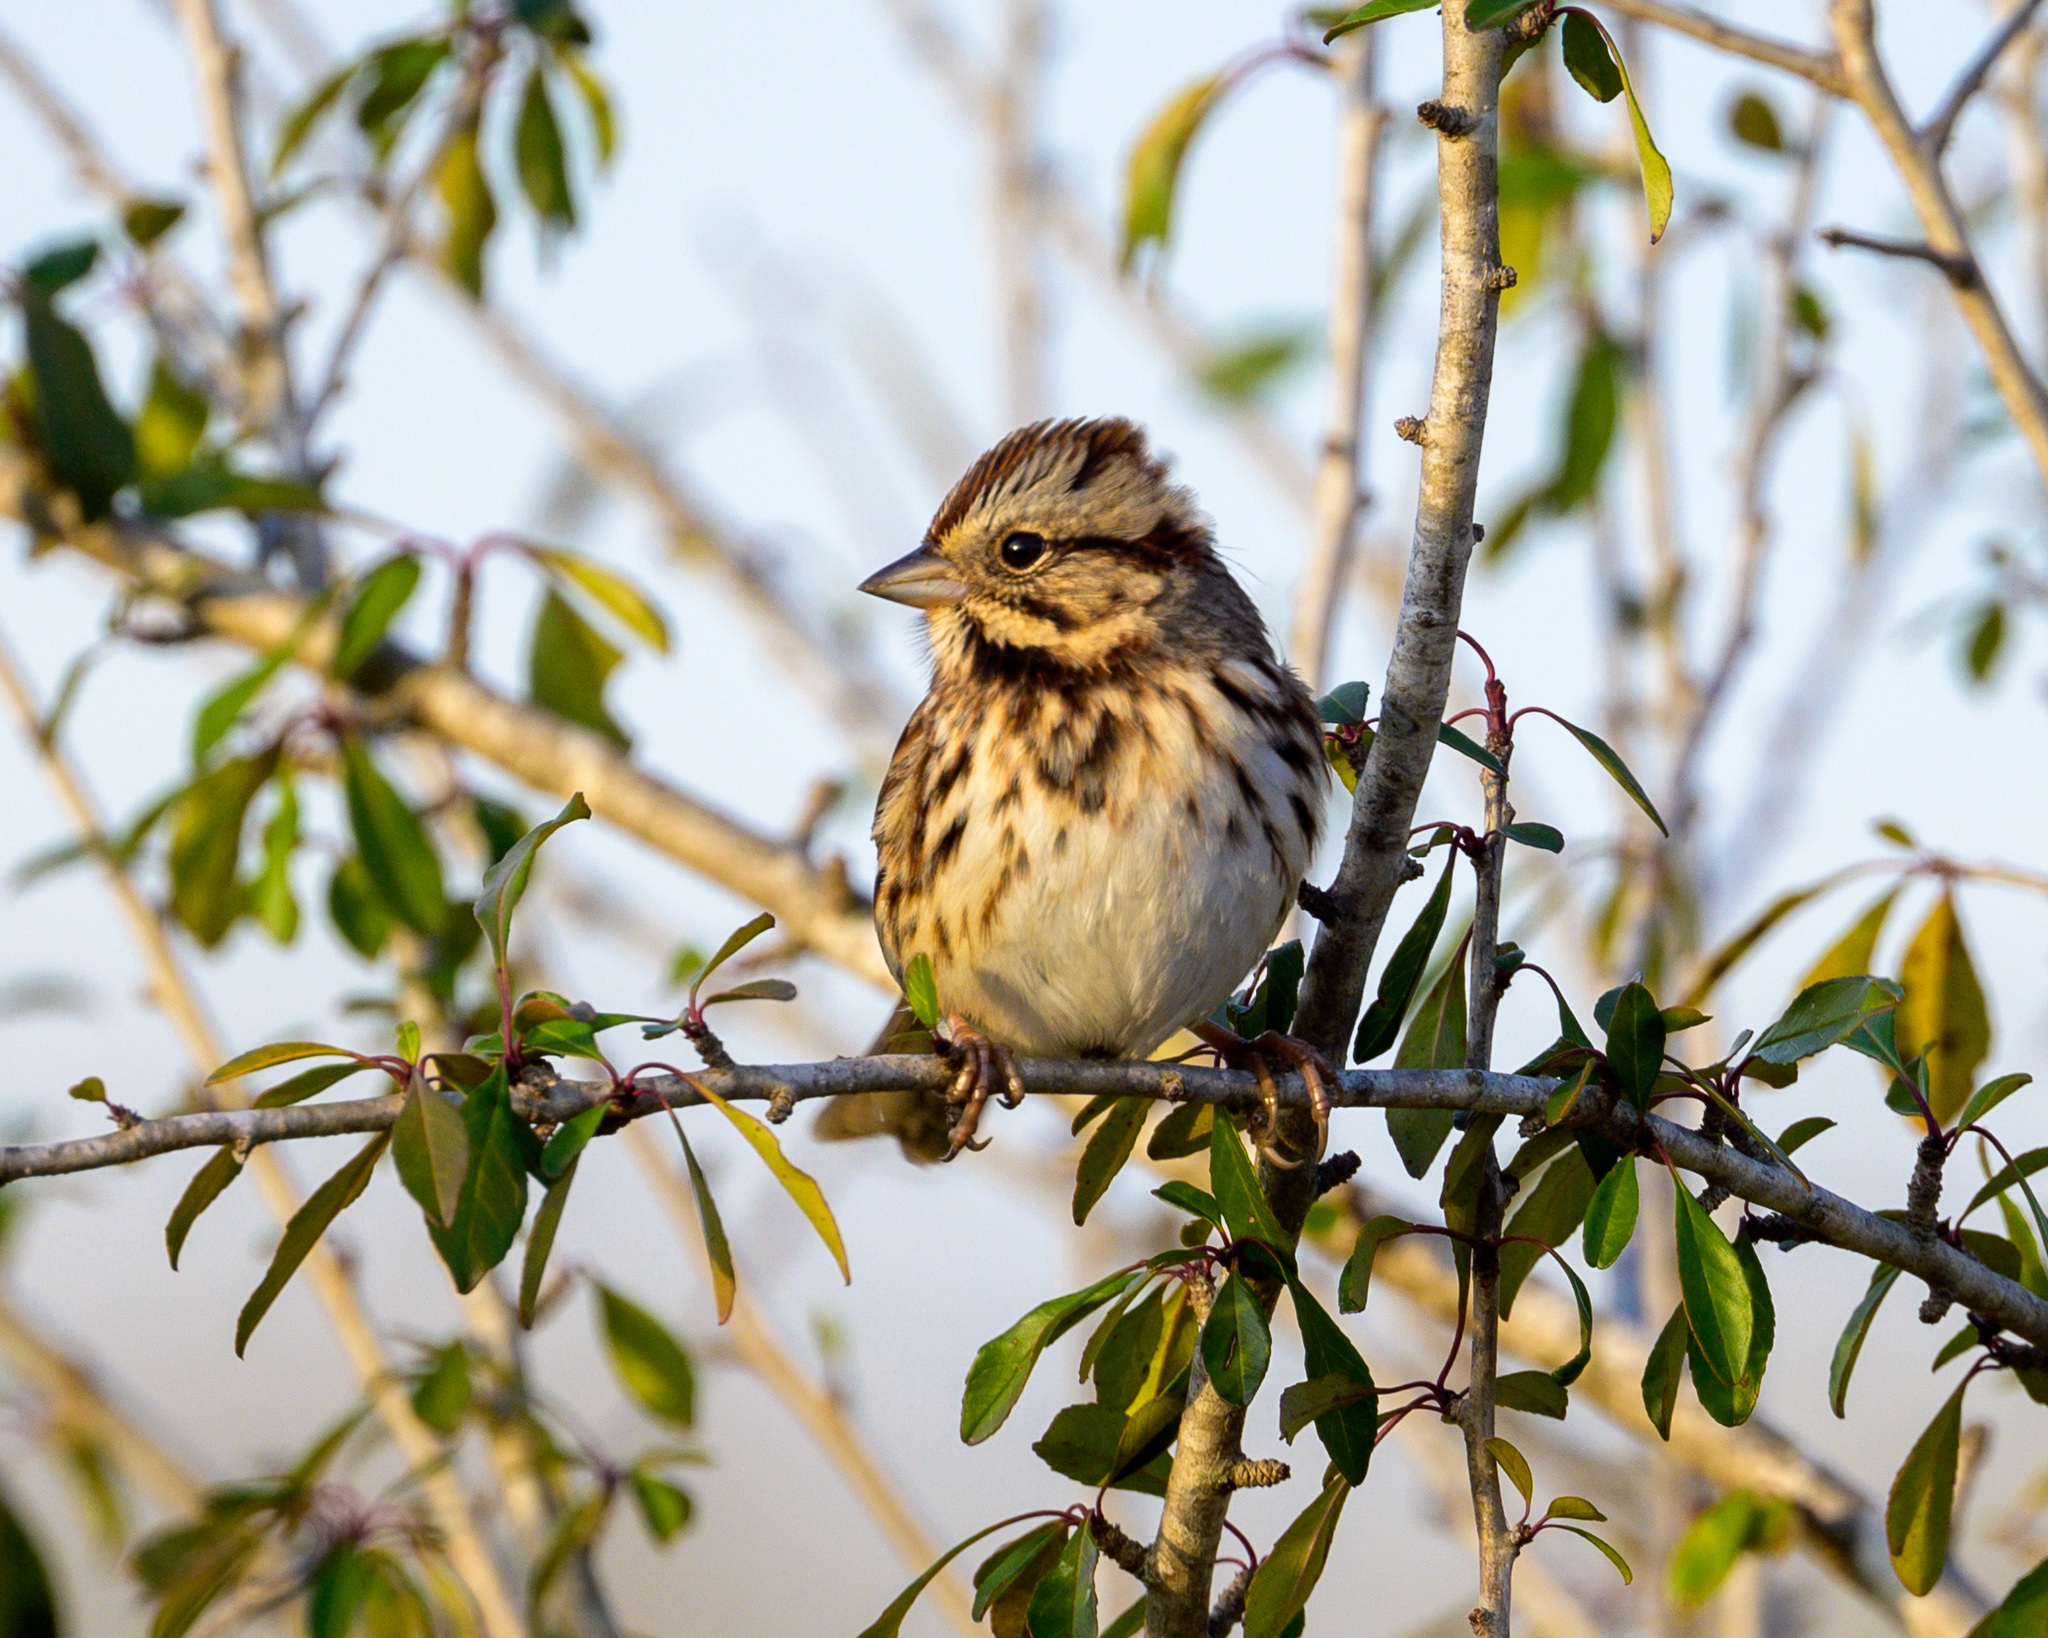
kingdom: Animalia
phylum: Chordata
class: Aves
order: Passeriformes
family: Passerellidae
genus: Melospiza
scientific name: Melospiza melodia
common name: Song sparrow
